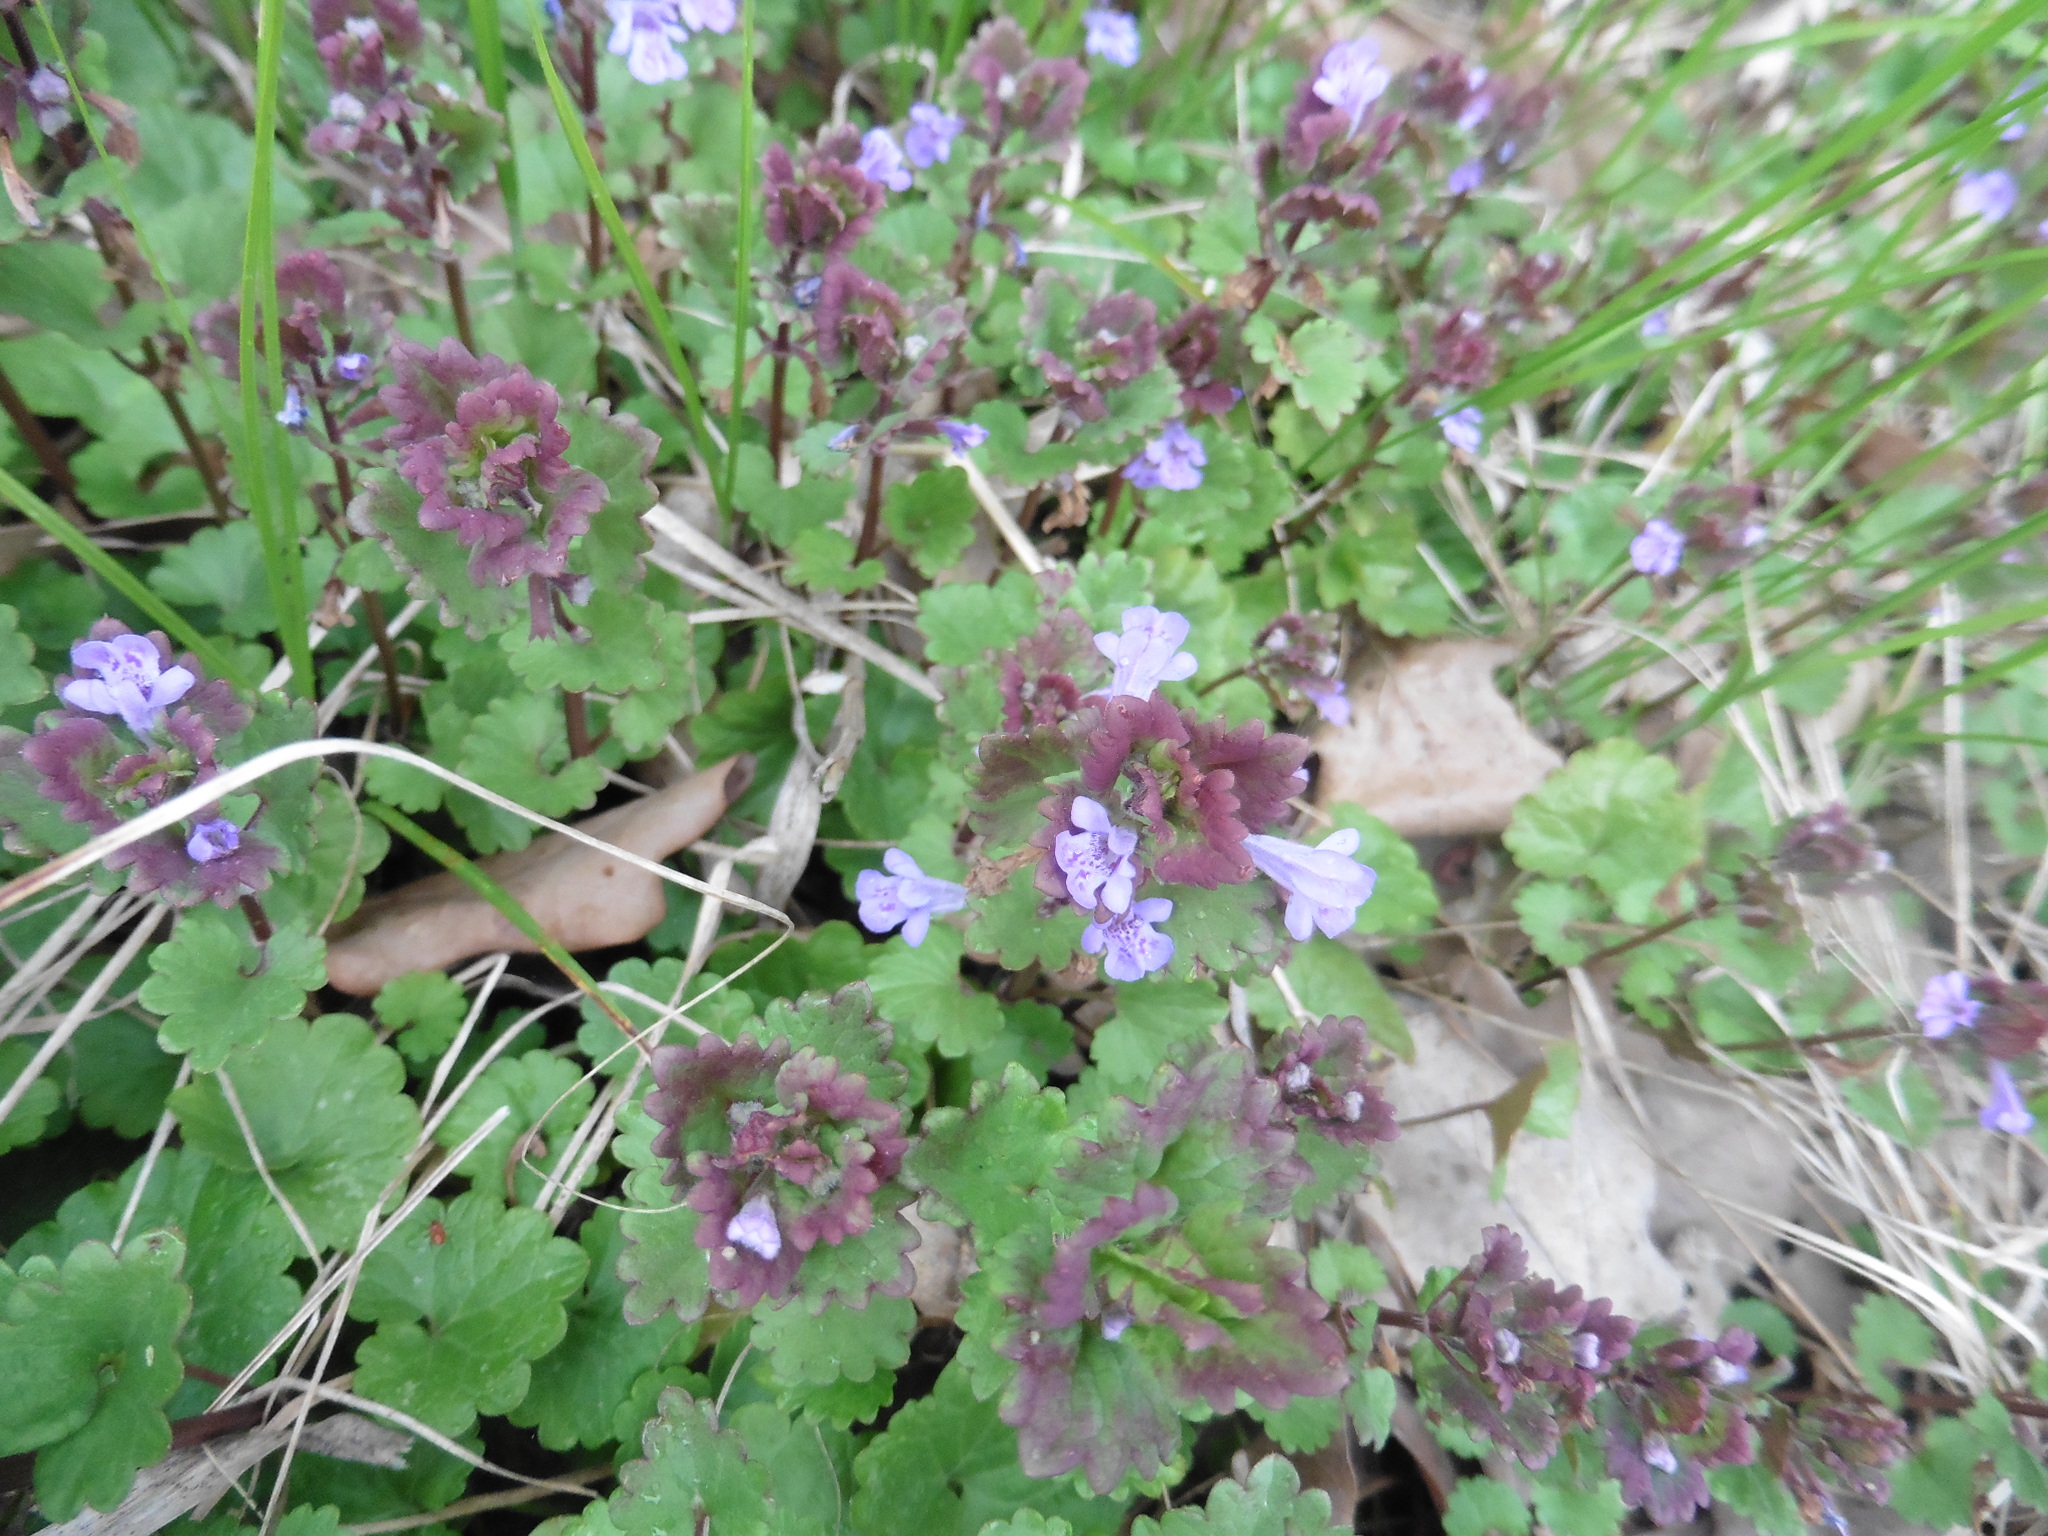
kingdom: Plantae
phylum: Tracheophyta
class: Magnoliopsida
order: Lamiales
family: Lamiaceae
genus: Glechoma
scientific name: Glechoma hederacea
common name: Ground ivy
